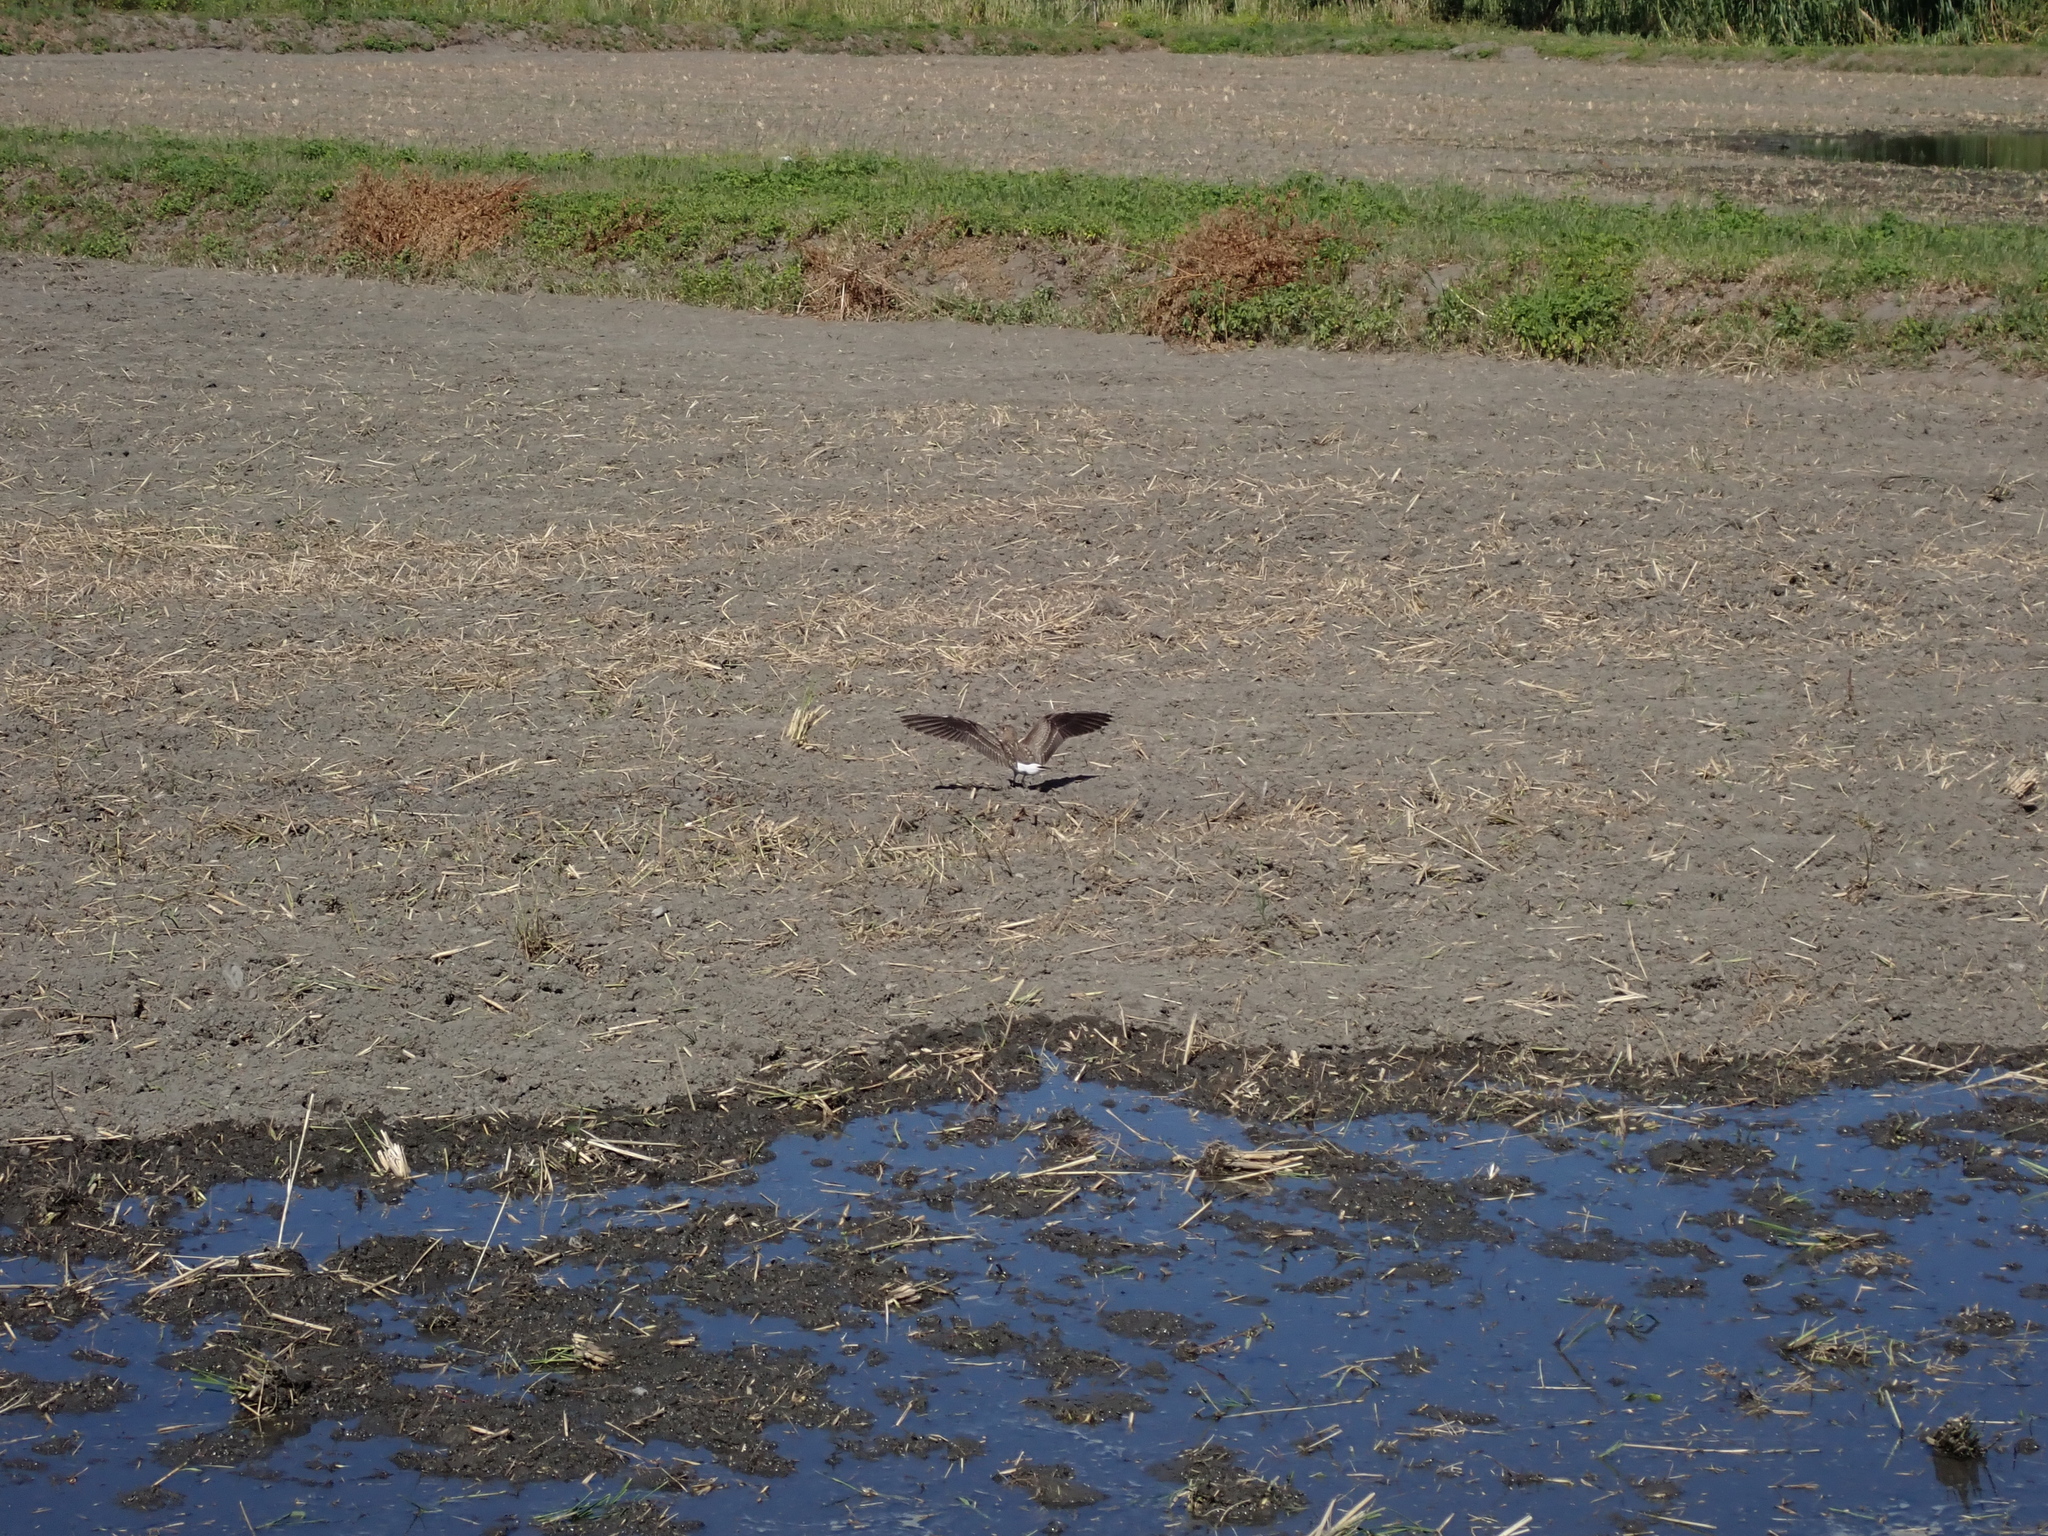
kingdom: Animalia
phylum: Chordata
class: Aves
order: Charadriiformes
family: Glareolidae
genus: Glareola
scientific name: Glareola maldivarum
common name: Oriental pratincole
